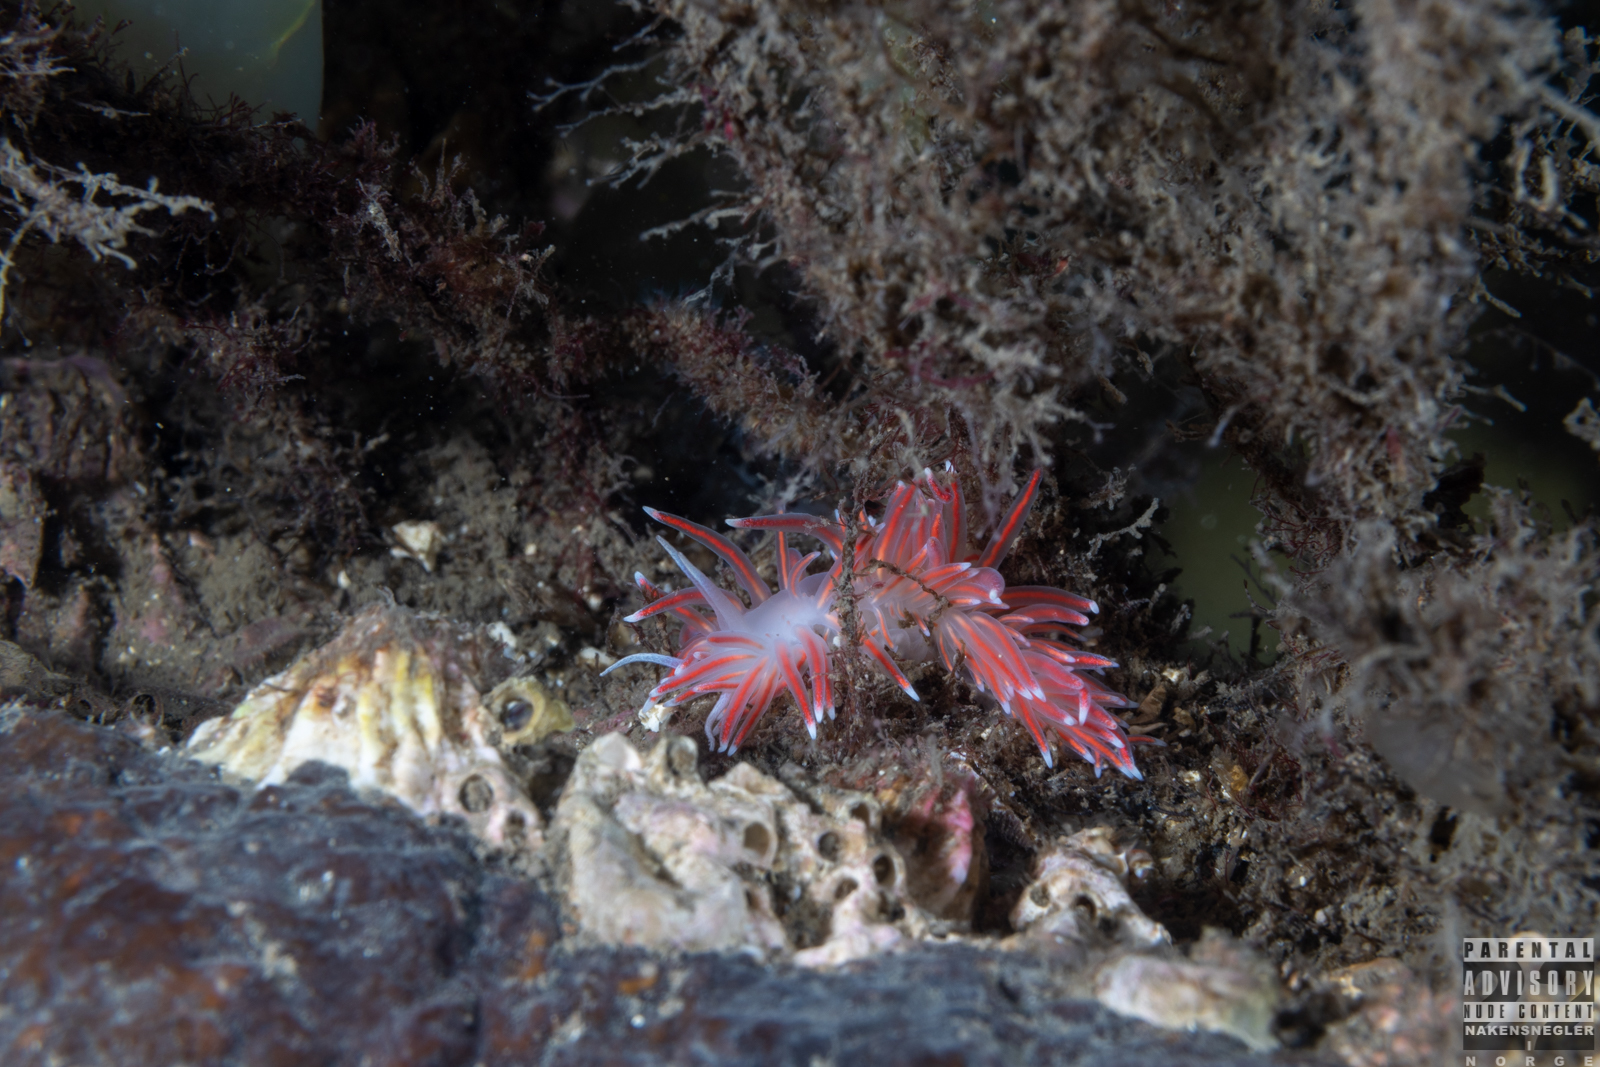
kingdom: Animalia
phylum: Mollusca
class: Gastropoda
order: Nudibranchia
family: Flabellinidae
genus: Carronella
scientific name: Carronella pellucida
